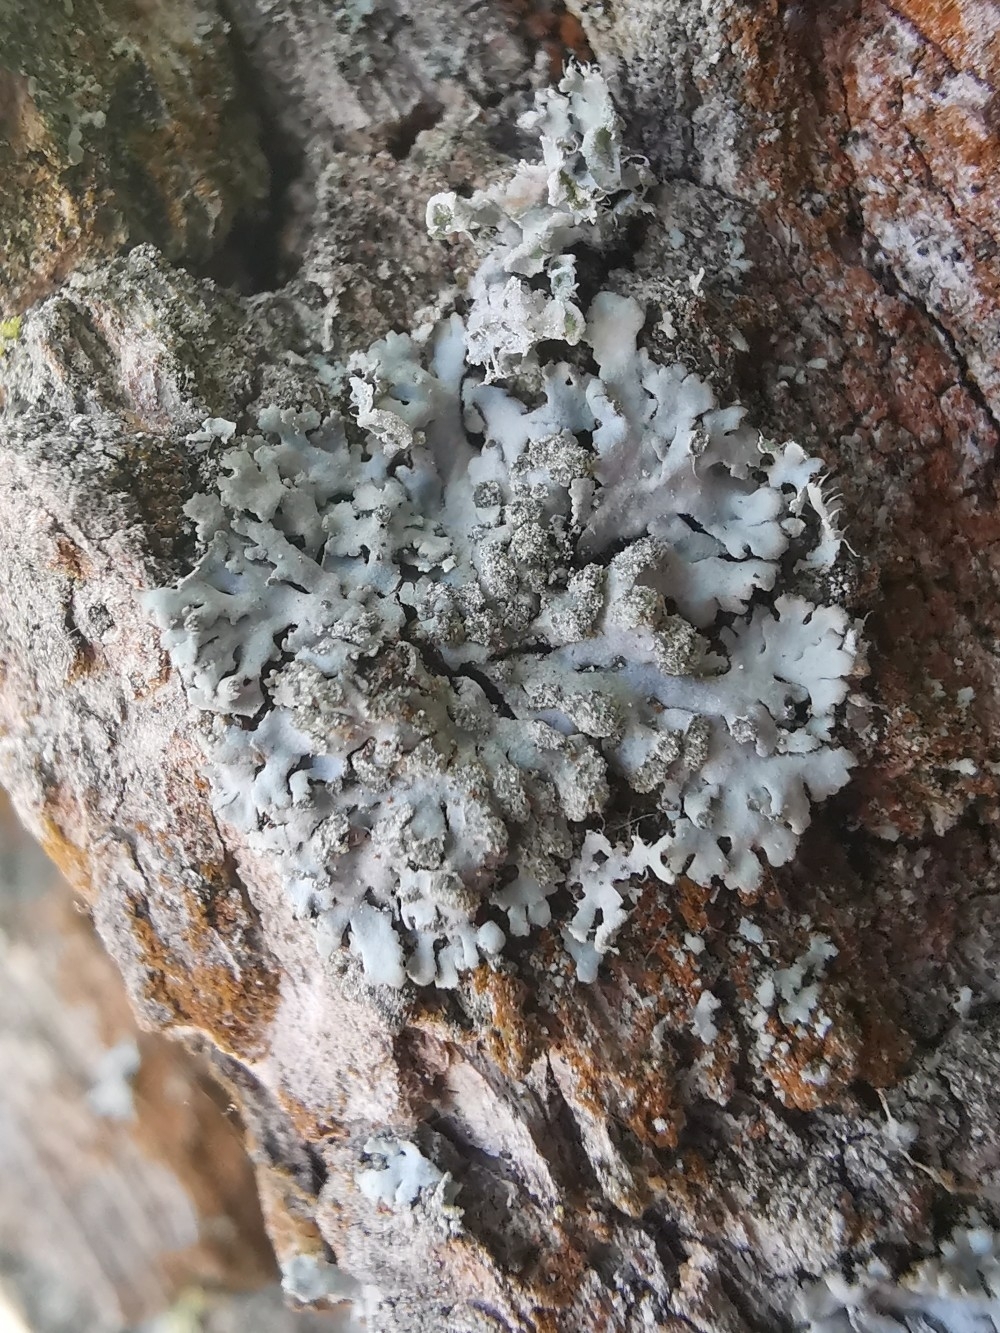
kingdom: Fungi
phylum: Ascomycota
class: Lecanoromycetes
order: Caliciales
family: Physciaceae
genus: Phaeophyscia
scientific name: Phaeophyscia orbicularis
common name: Mealy shadow lichen
